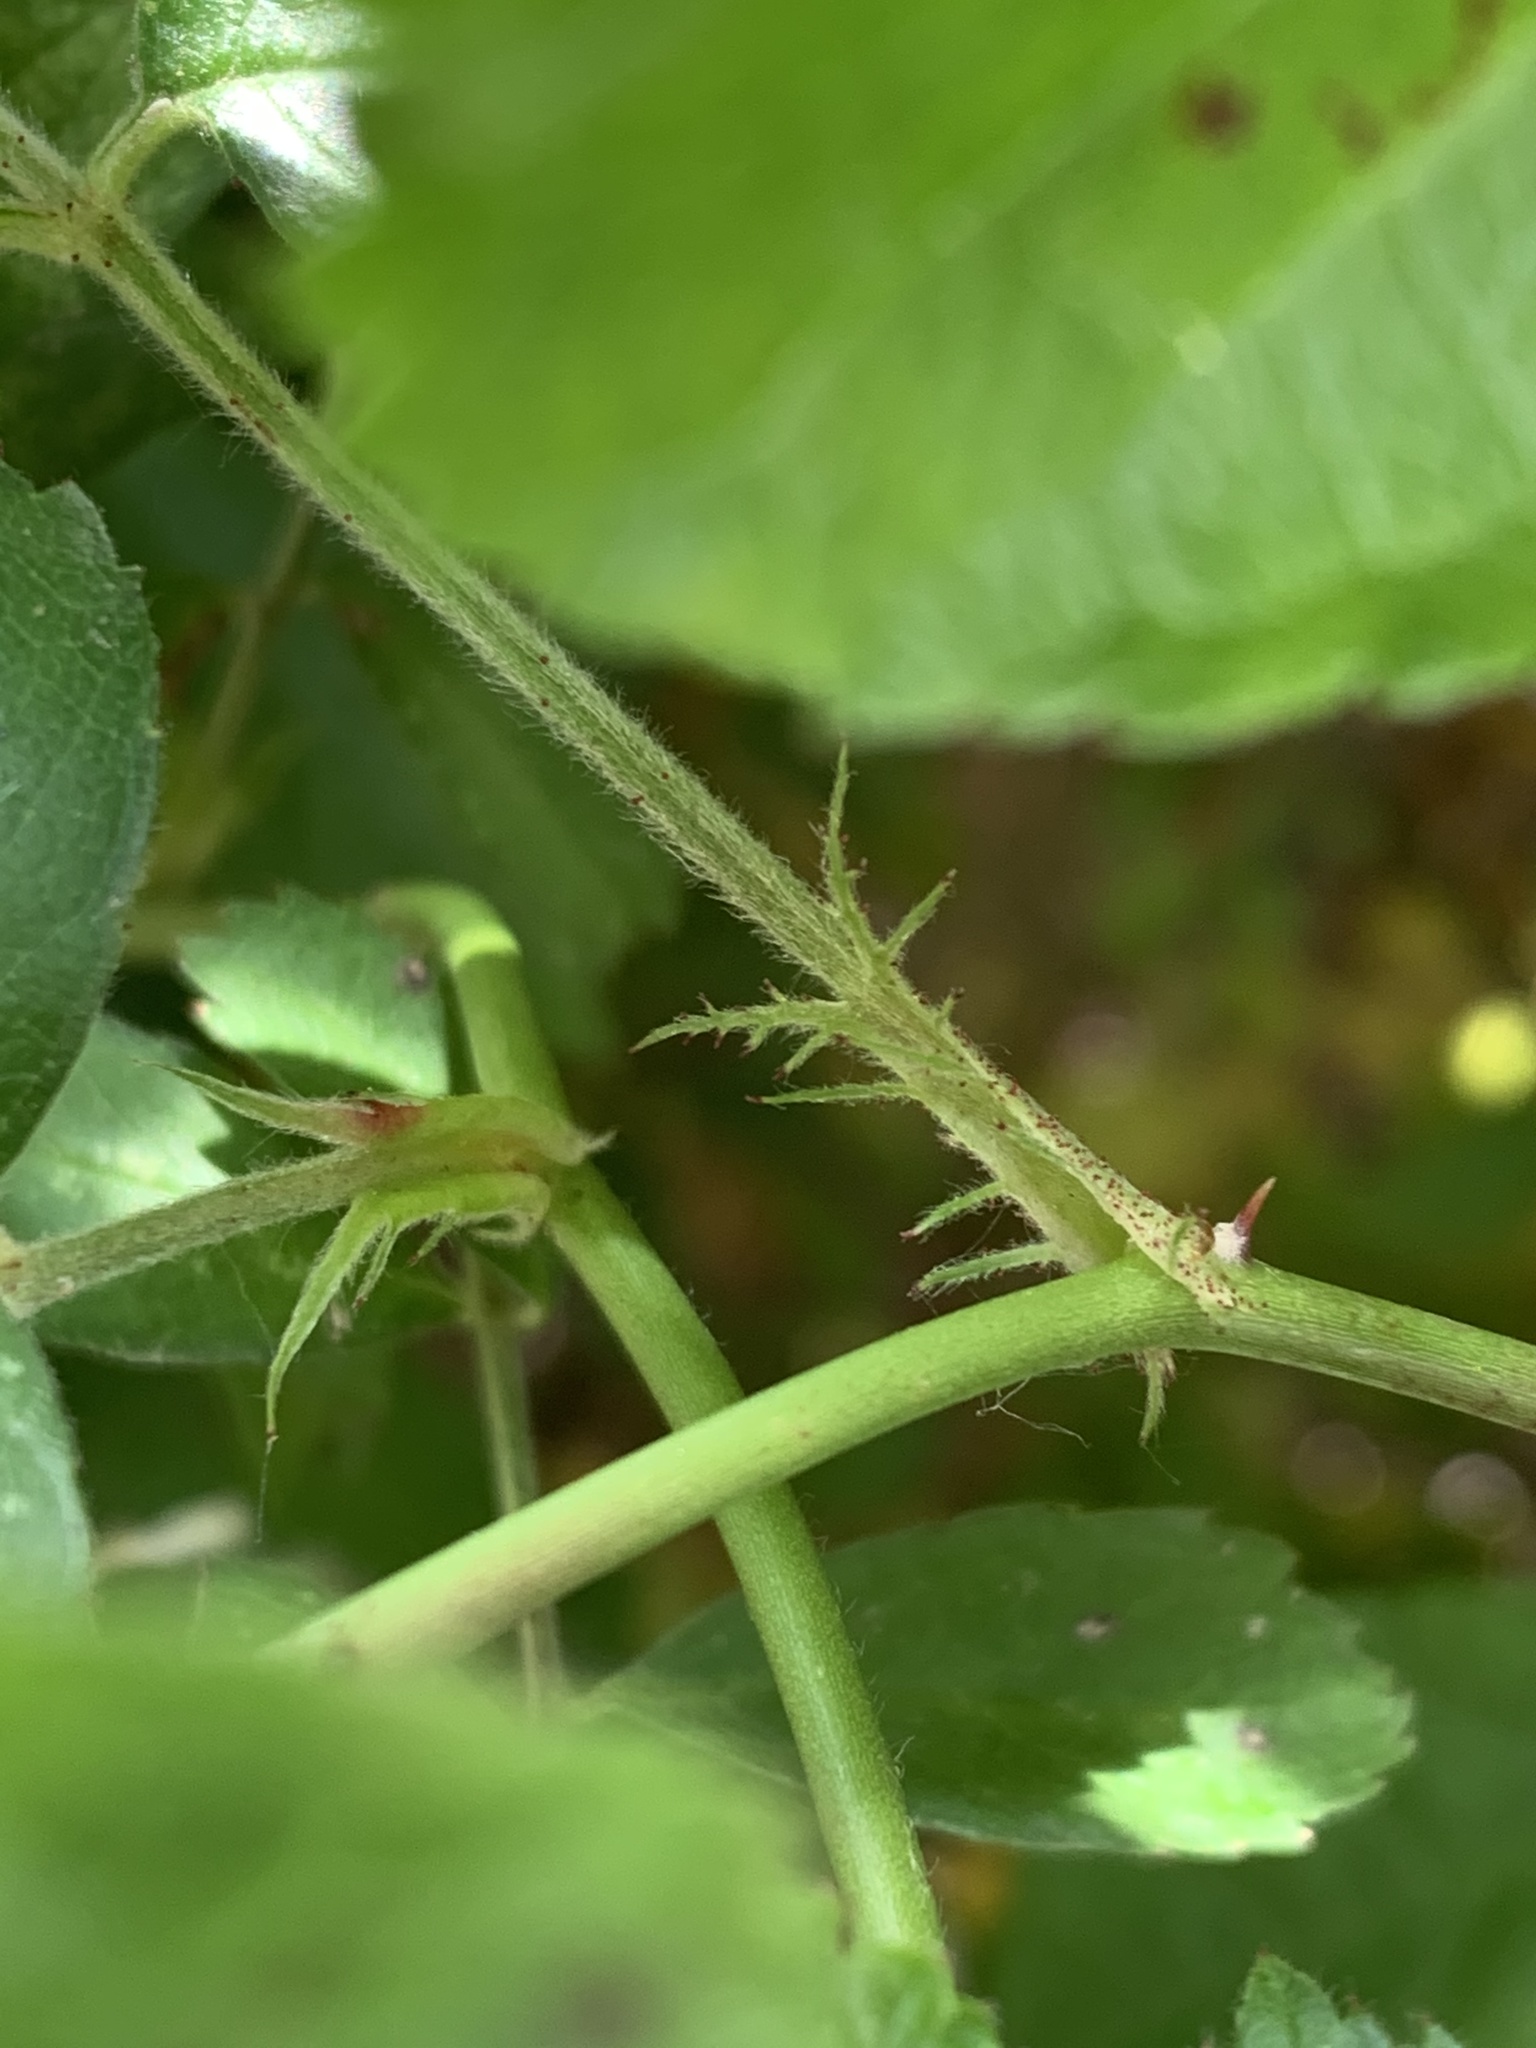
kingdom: Plantae
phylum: Tracheophyta
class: Magnoliopsida
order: Rosales
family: Rosaceae
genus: Rosa
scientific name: Rosa multiflora
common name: Multiflora rose
